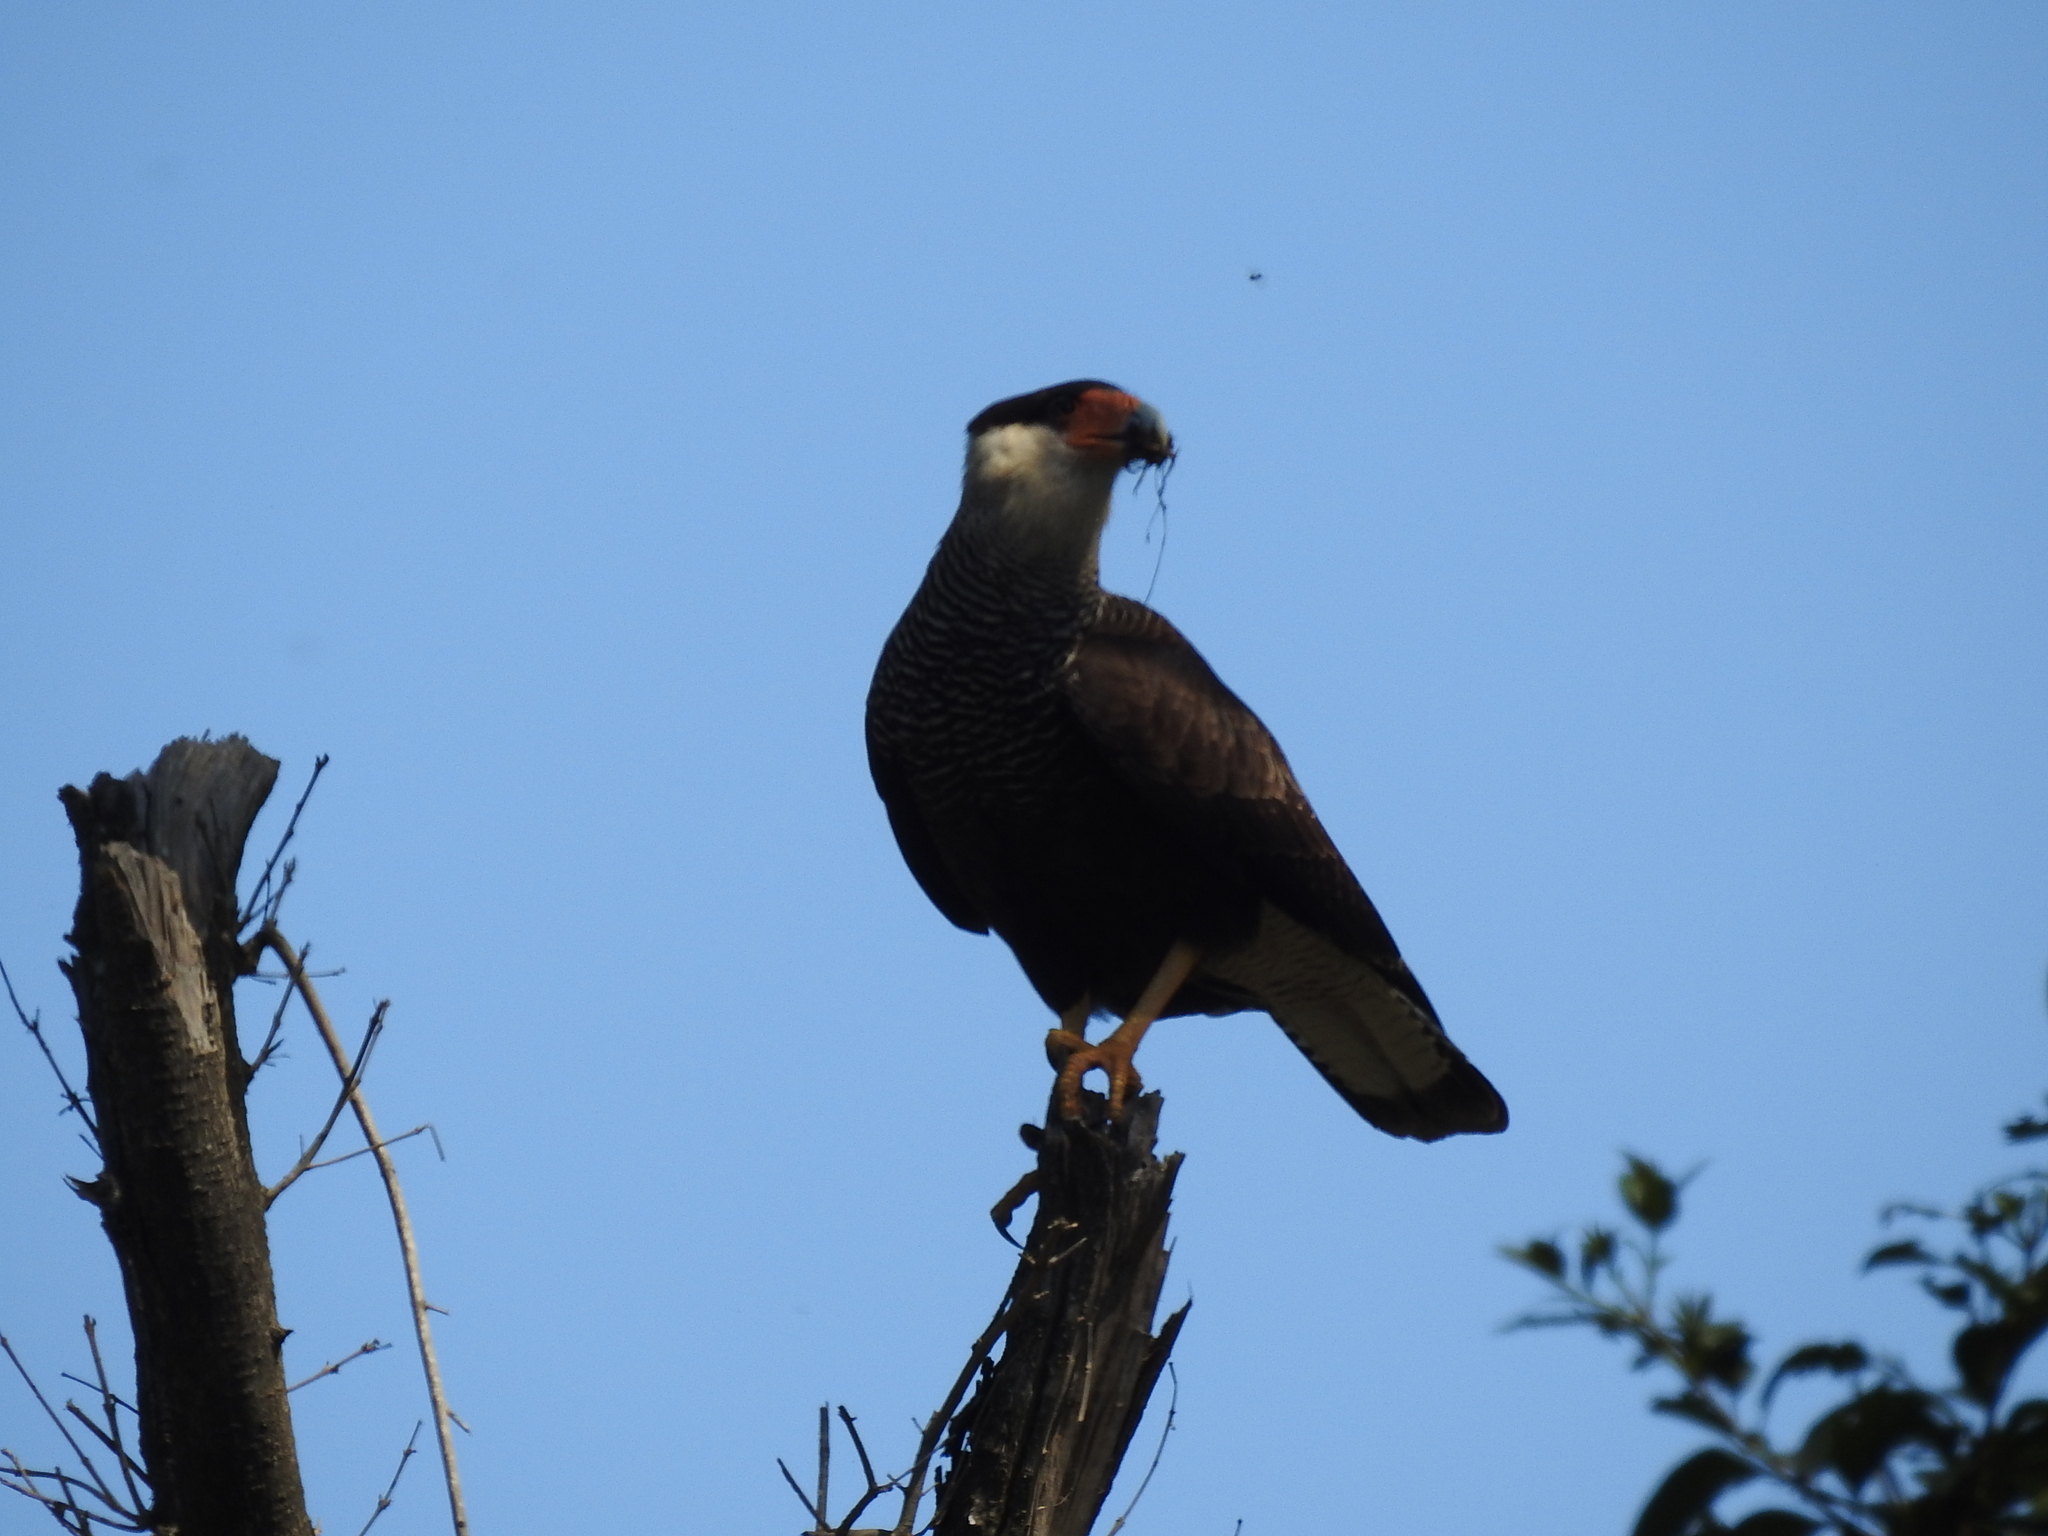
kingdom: Animalia
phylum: Chordata
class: Aves
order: Falconiformes
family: Falconidae
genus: Caracara
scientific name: Caracara plancus
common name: Southern caracara
